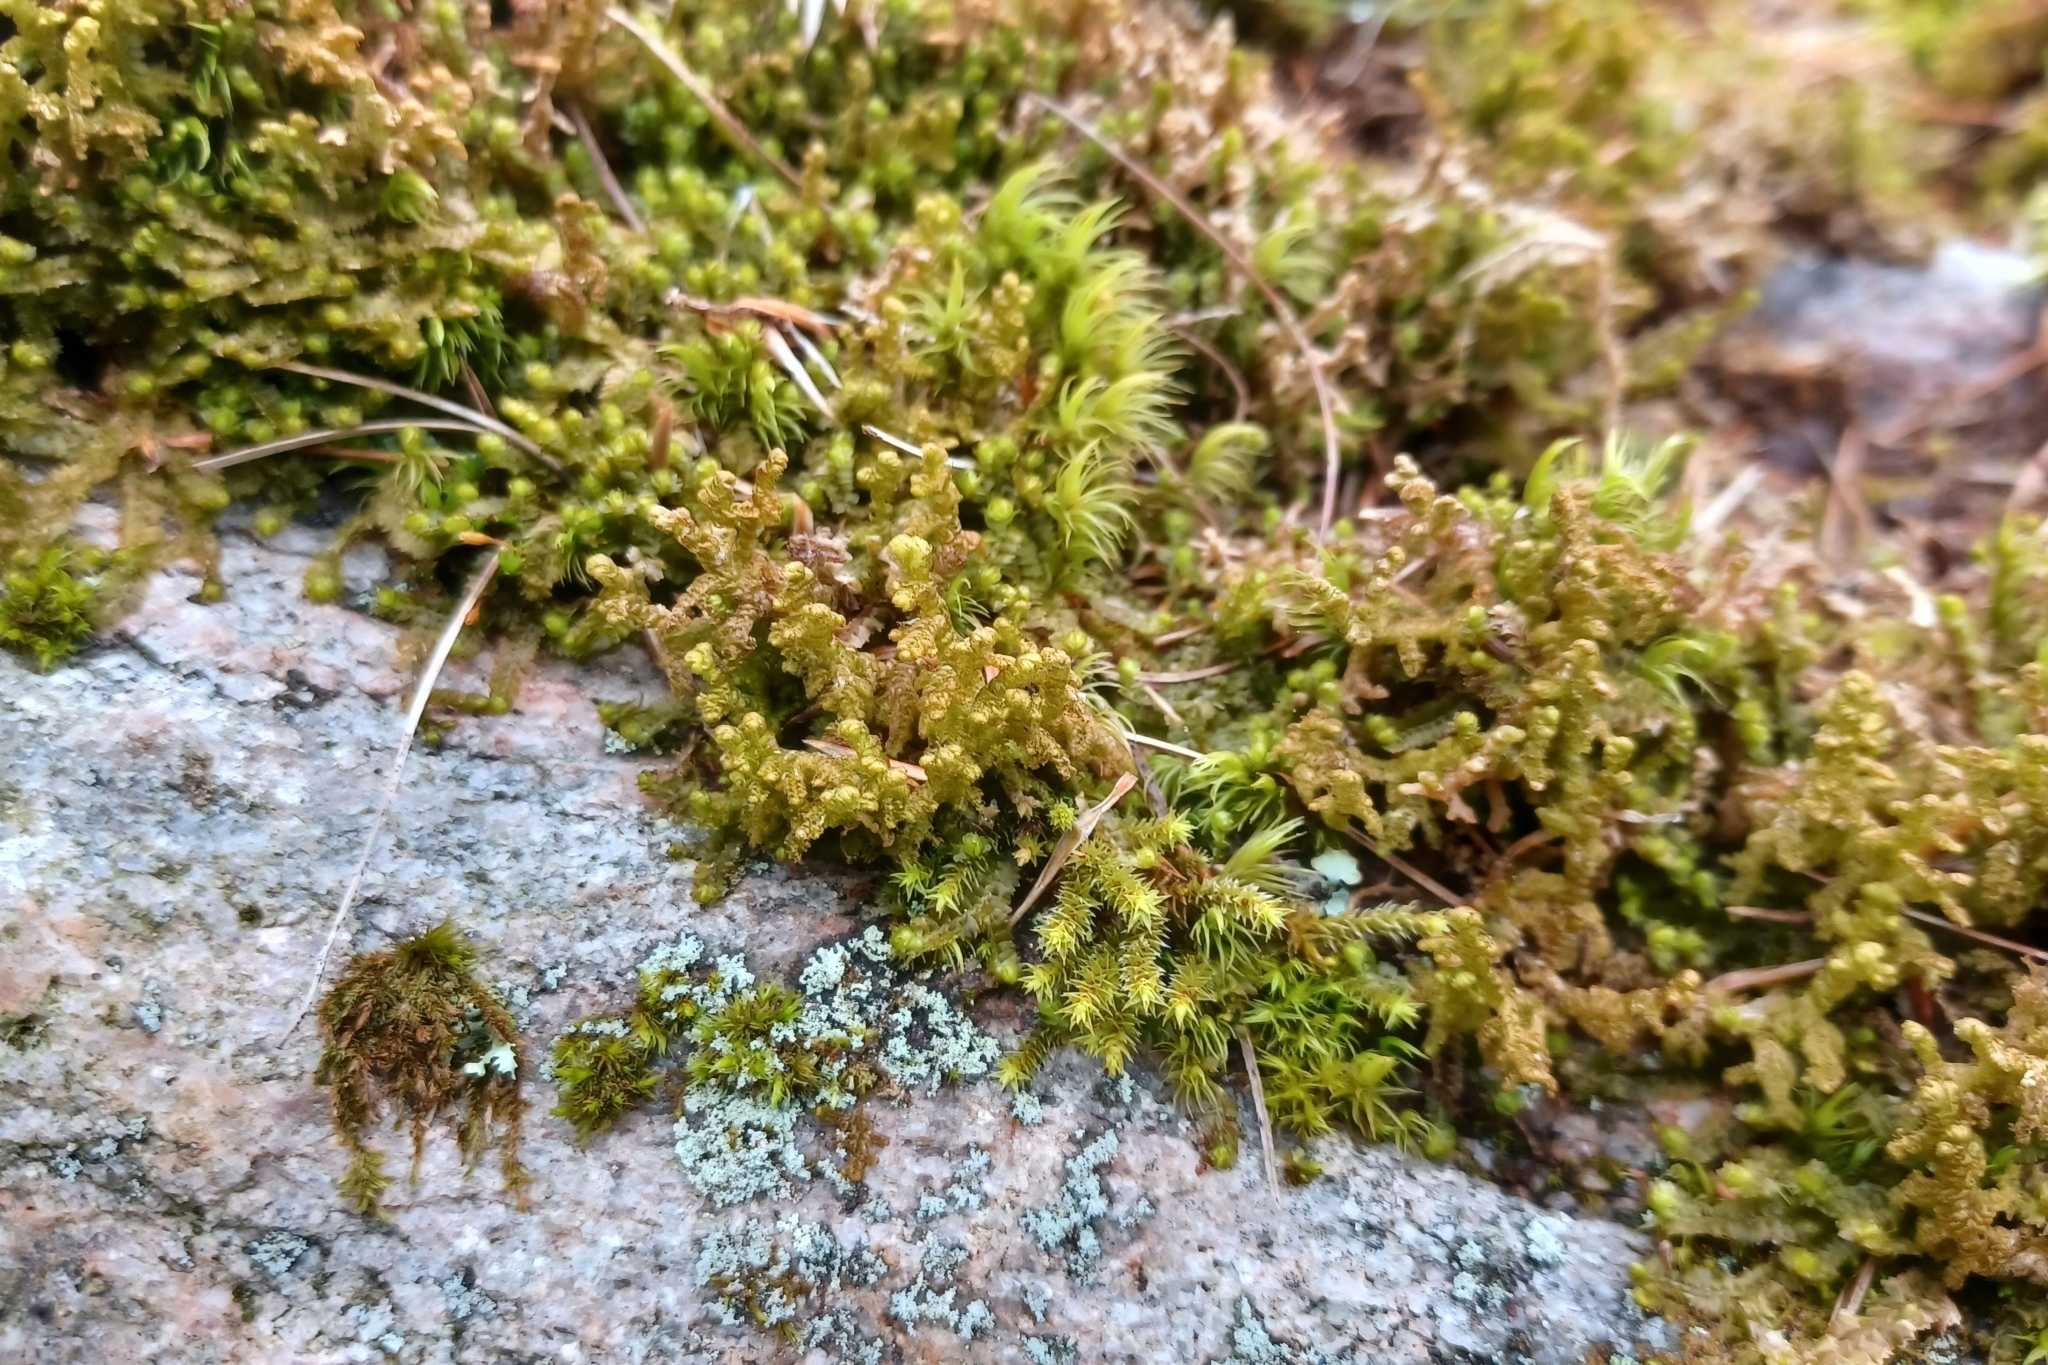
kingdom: Plantae
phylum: Marchantiophyta
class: Jungermanniopsida
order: Ptilidiales
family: Ptilidiaceae
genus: Ptilidium
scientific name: Ptilidium ciliare
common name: Ciliate fringewort
